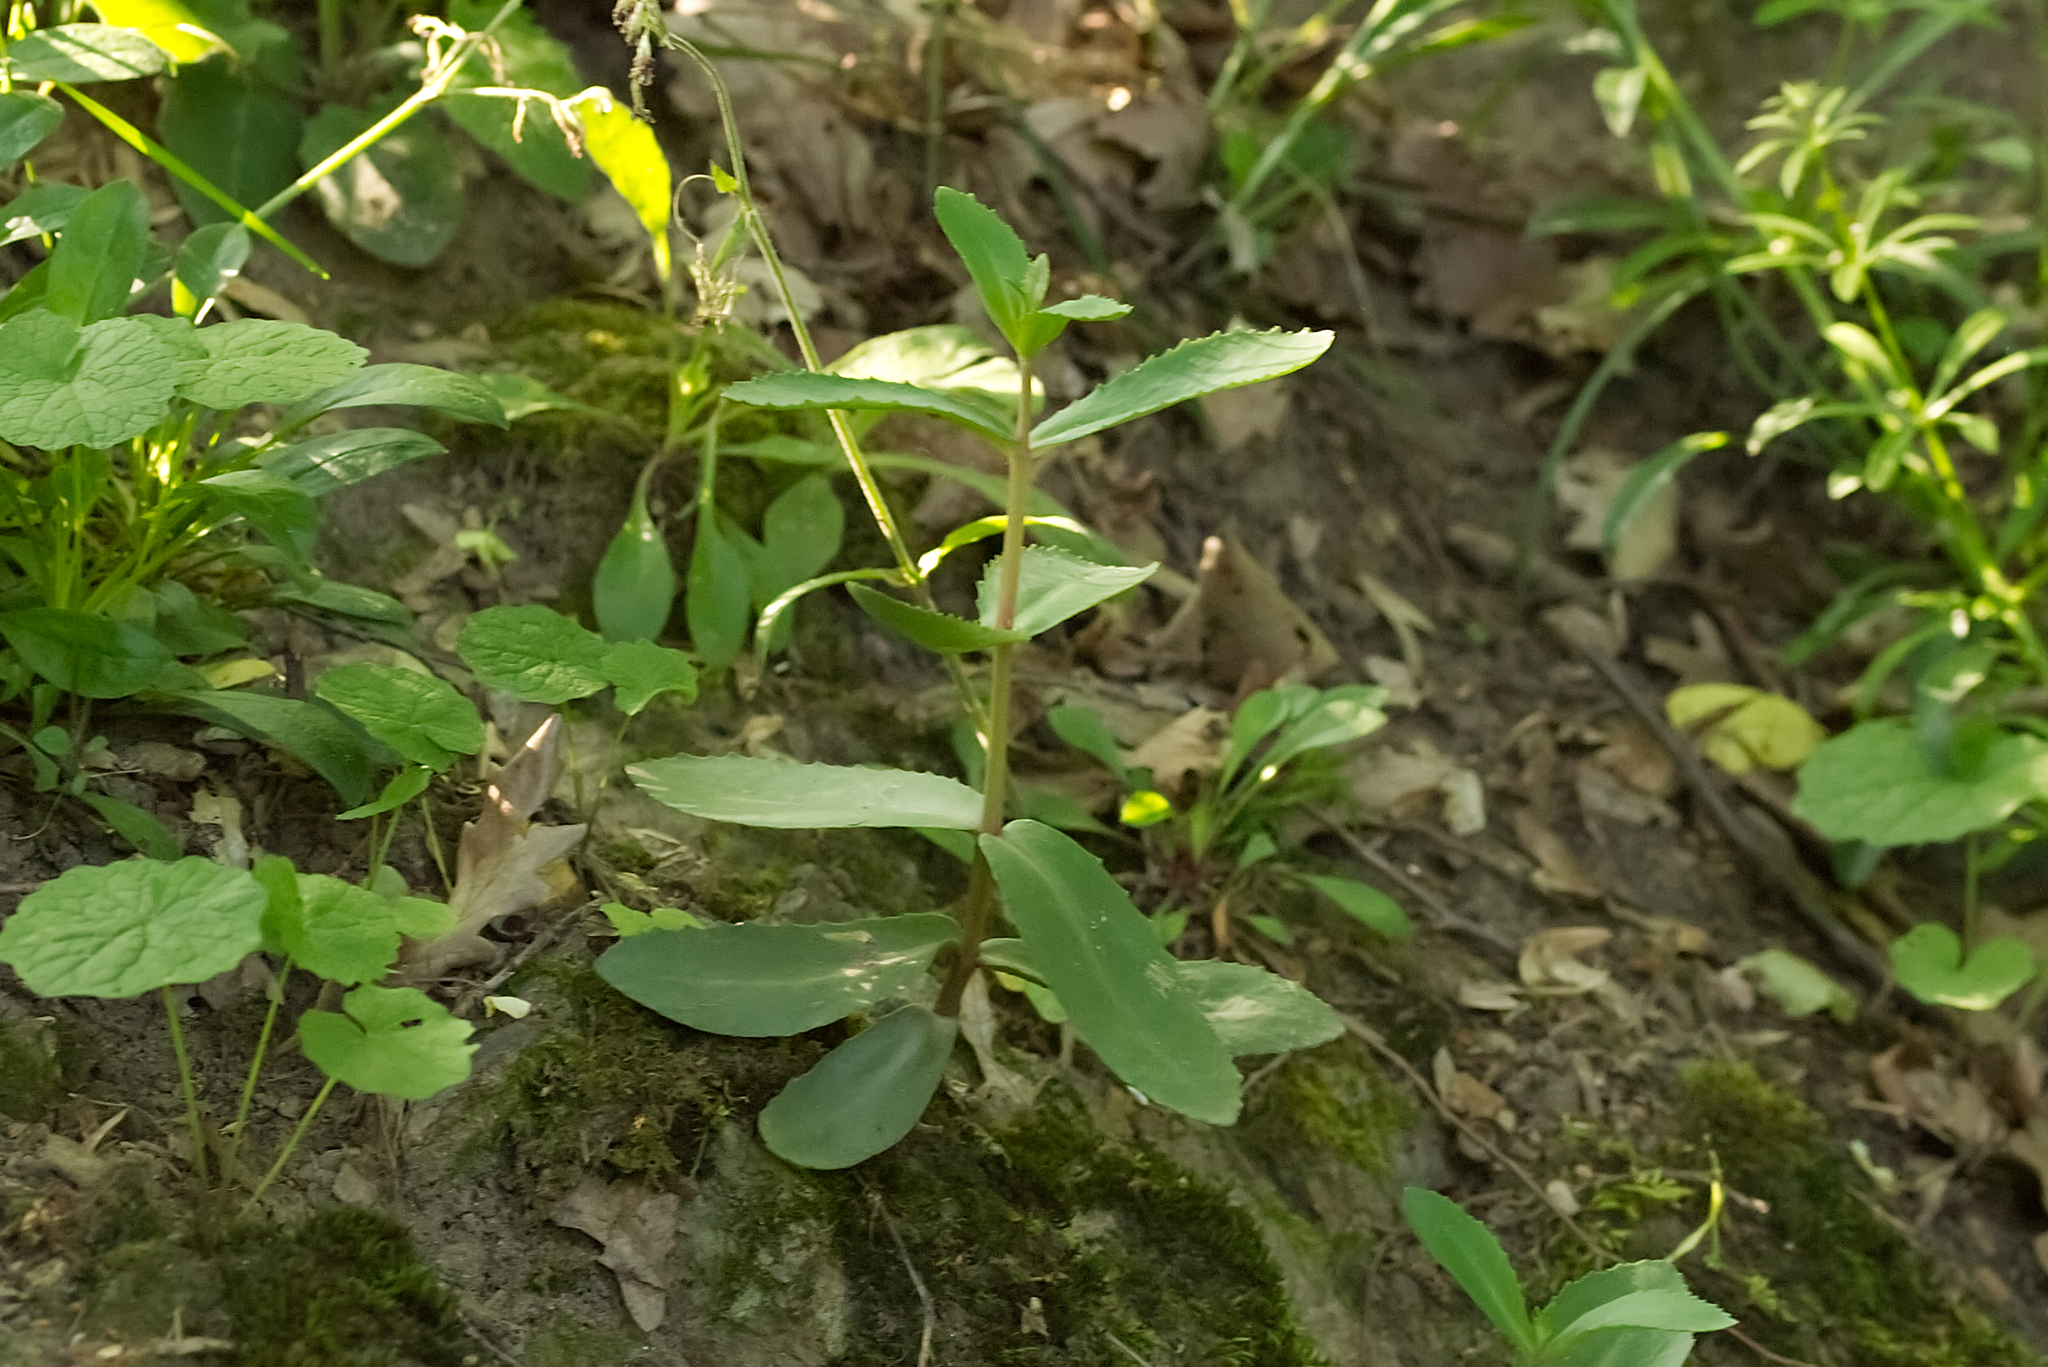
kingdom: Plantae
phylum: Tracheophyta
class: Magnoliopsida
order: Saxifragales
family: Crassulaceae
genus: Hylotelephium
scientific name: Hylotelephium maximum
